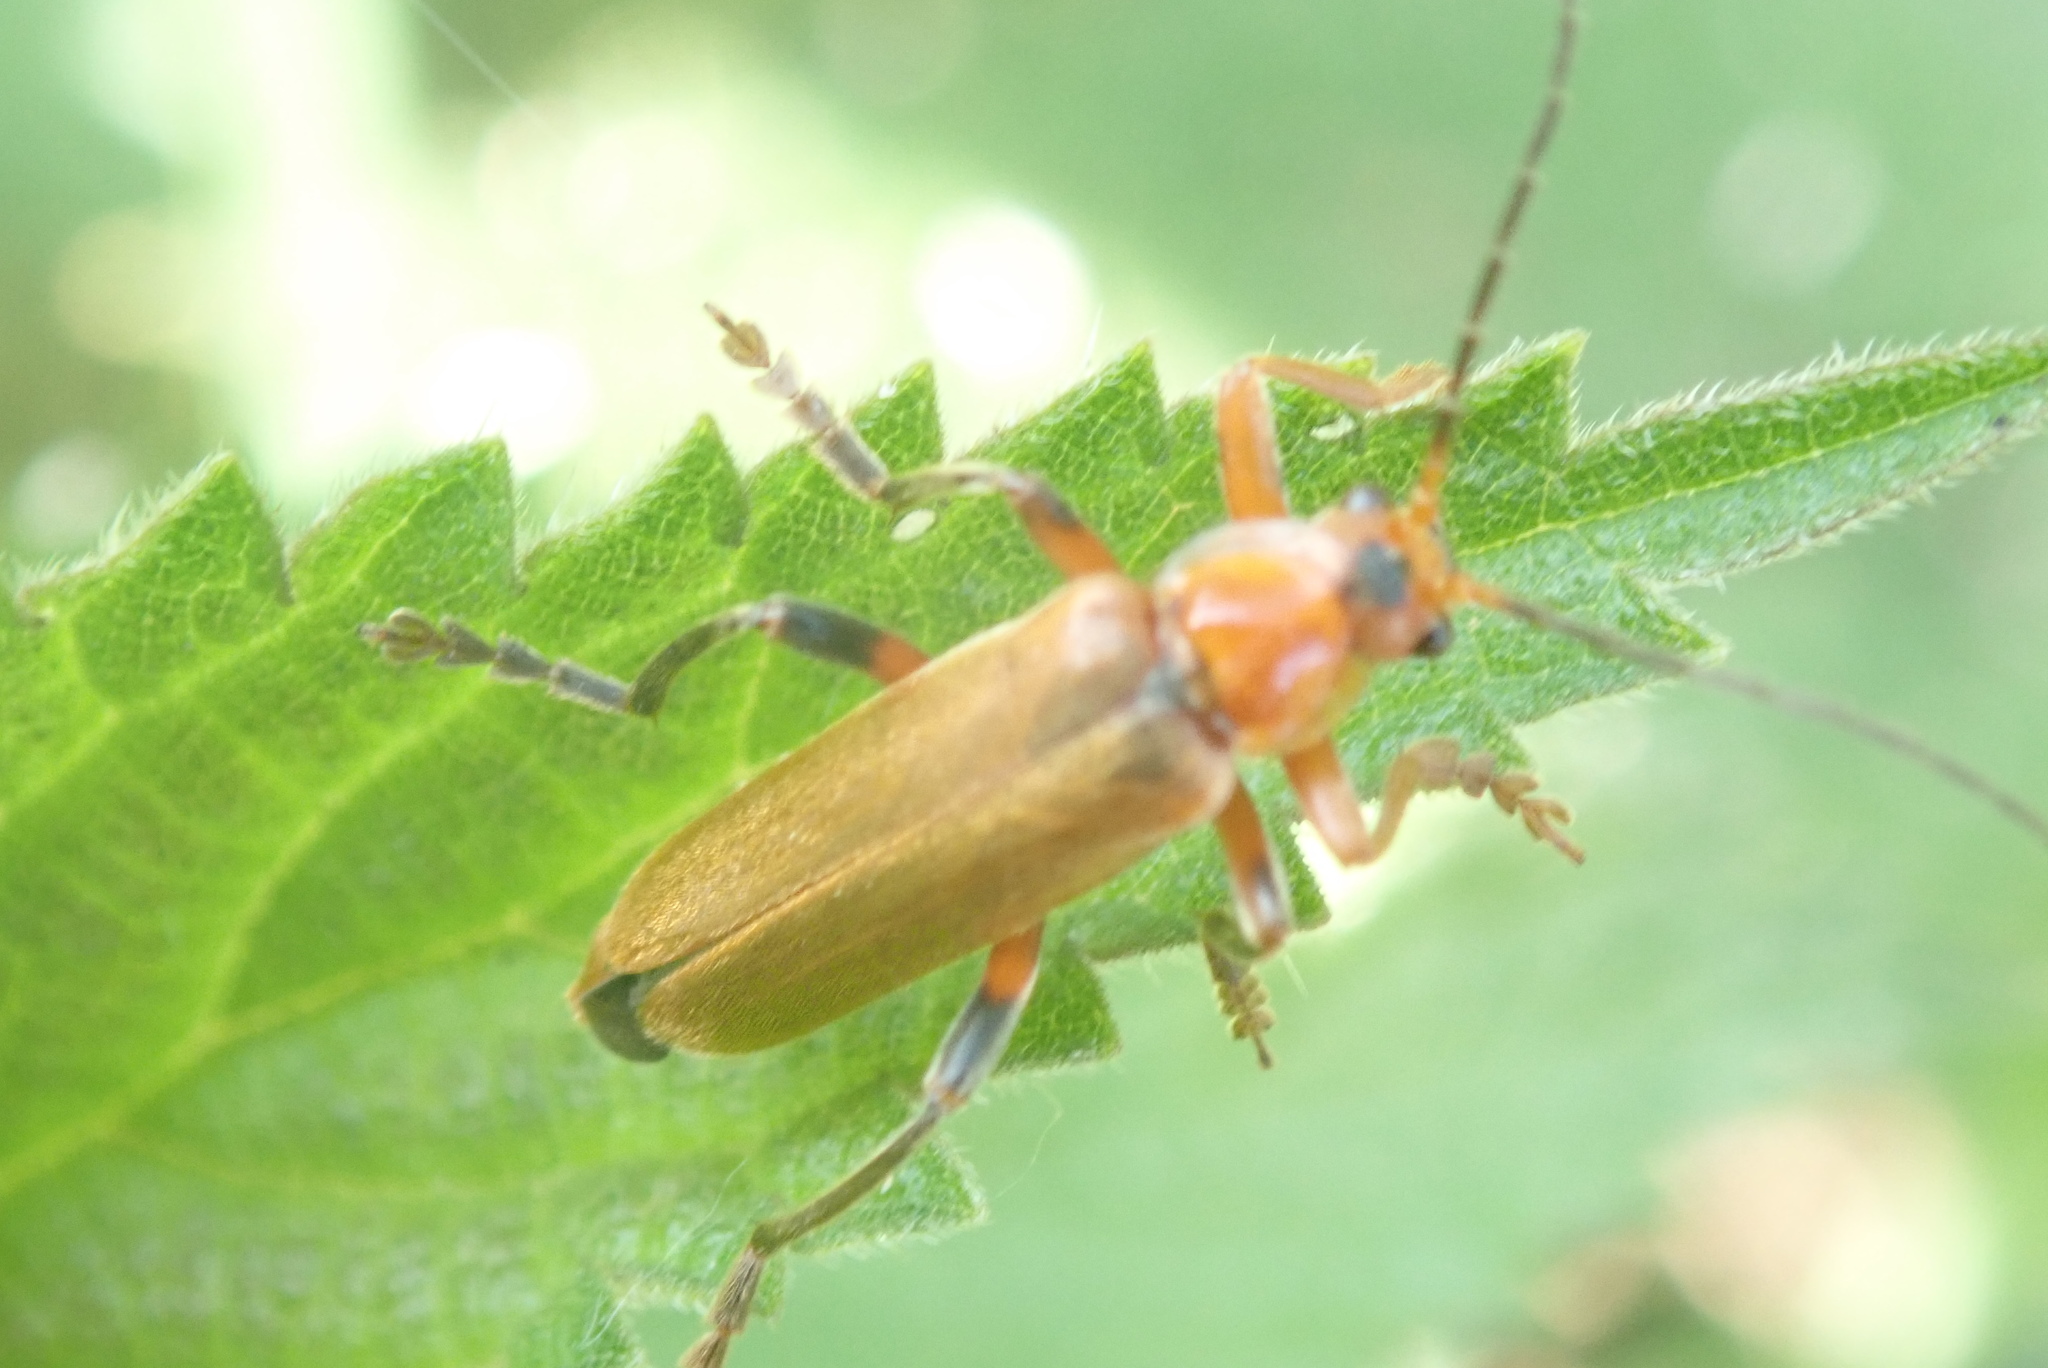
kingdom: Animalia
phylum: Arthropoda
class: Insecta
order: Coleoptera
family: Cantharidae
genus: Cantharis
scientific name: Cantharis livida
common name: Livid soldier beetle
